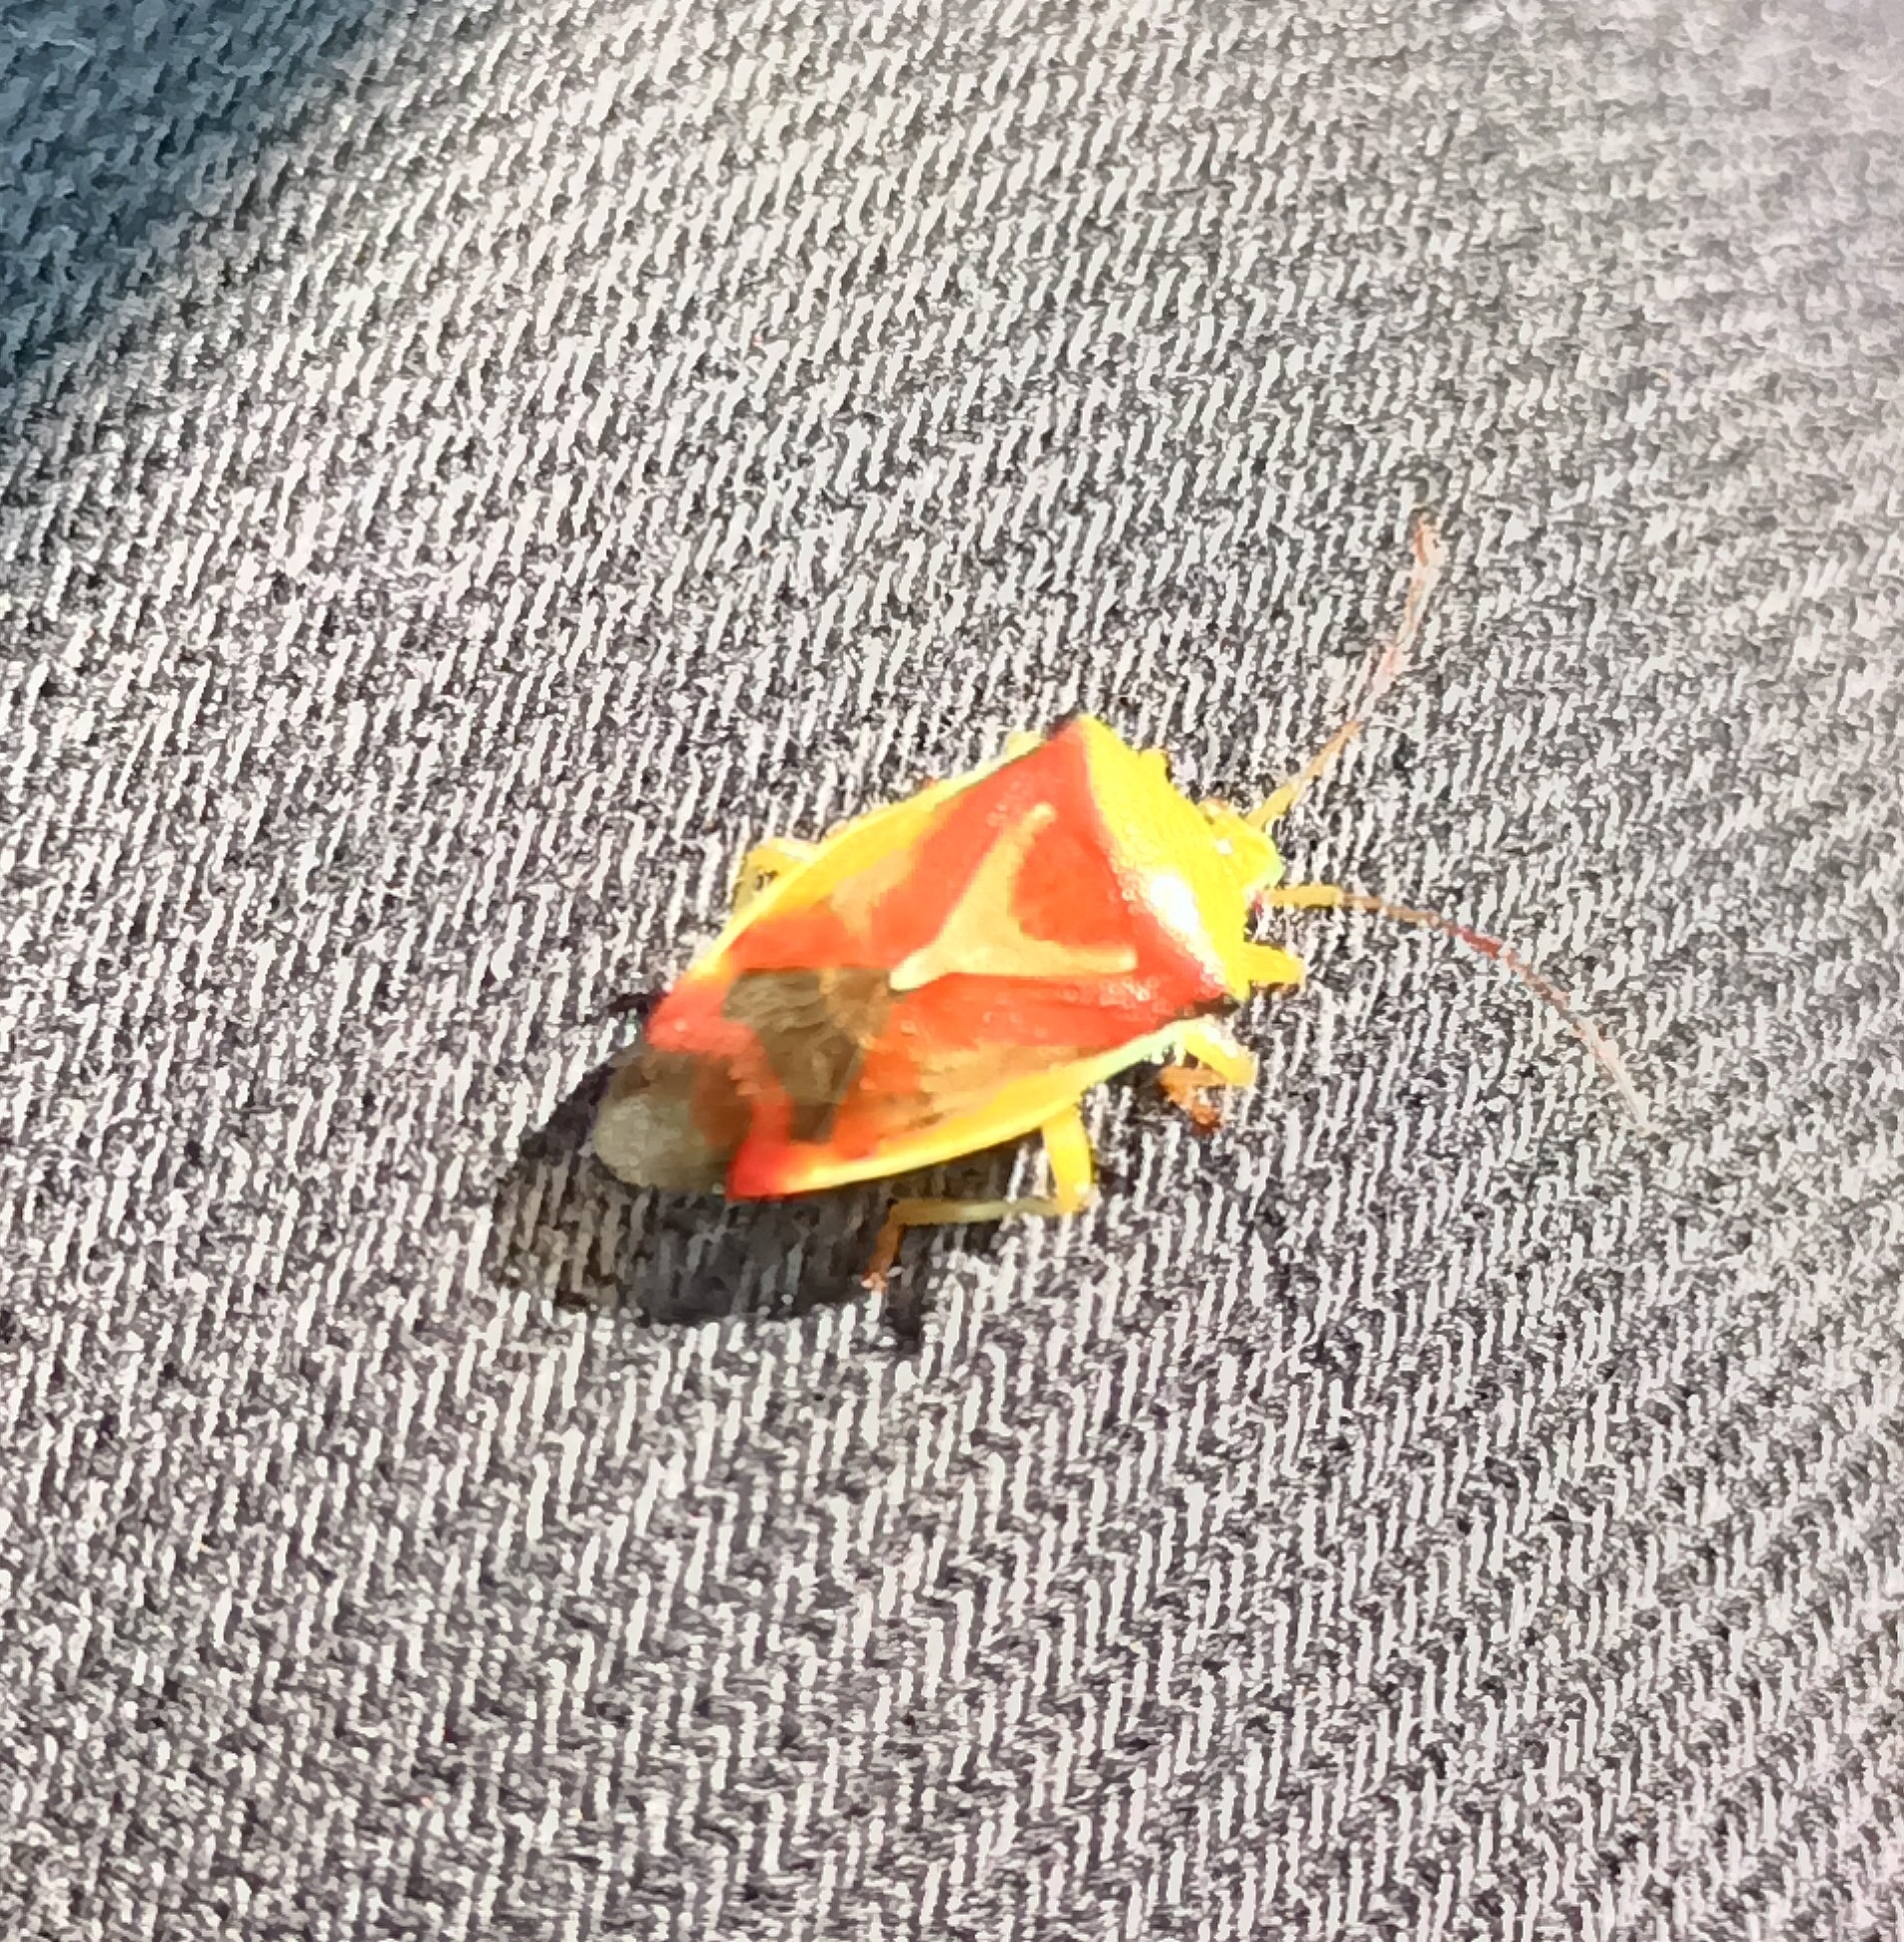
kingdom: Animalia
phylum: Arthropoda
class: Insecta
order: Hemiptera
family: Acanthosomatidae
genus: Elasmostethus
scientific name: Elasmostethus
